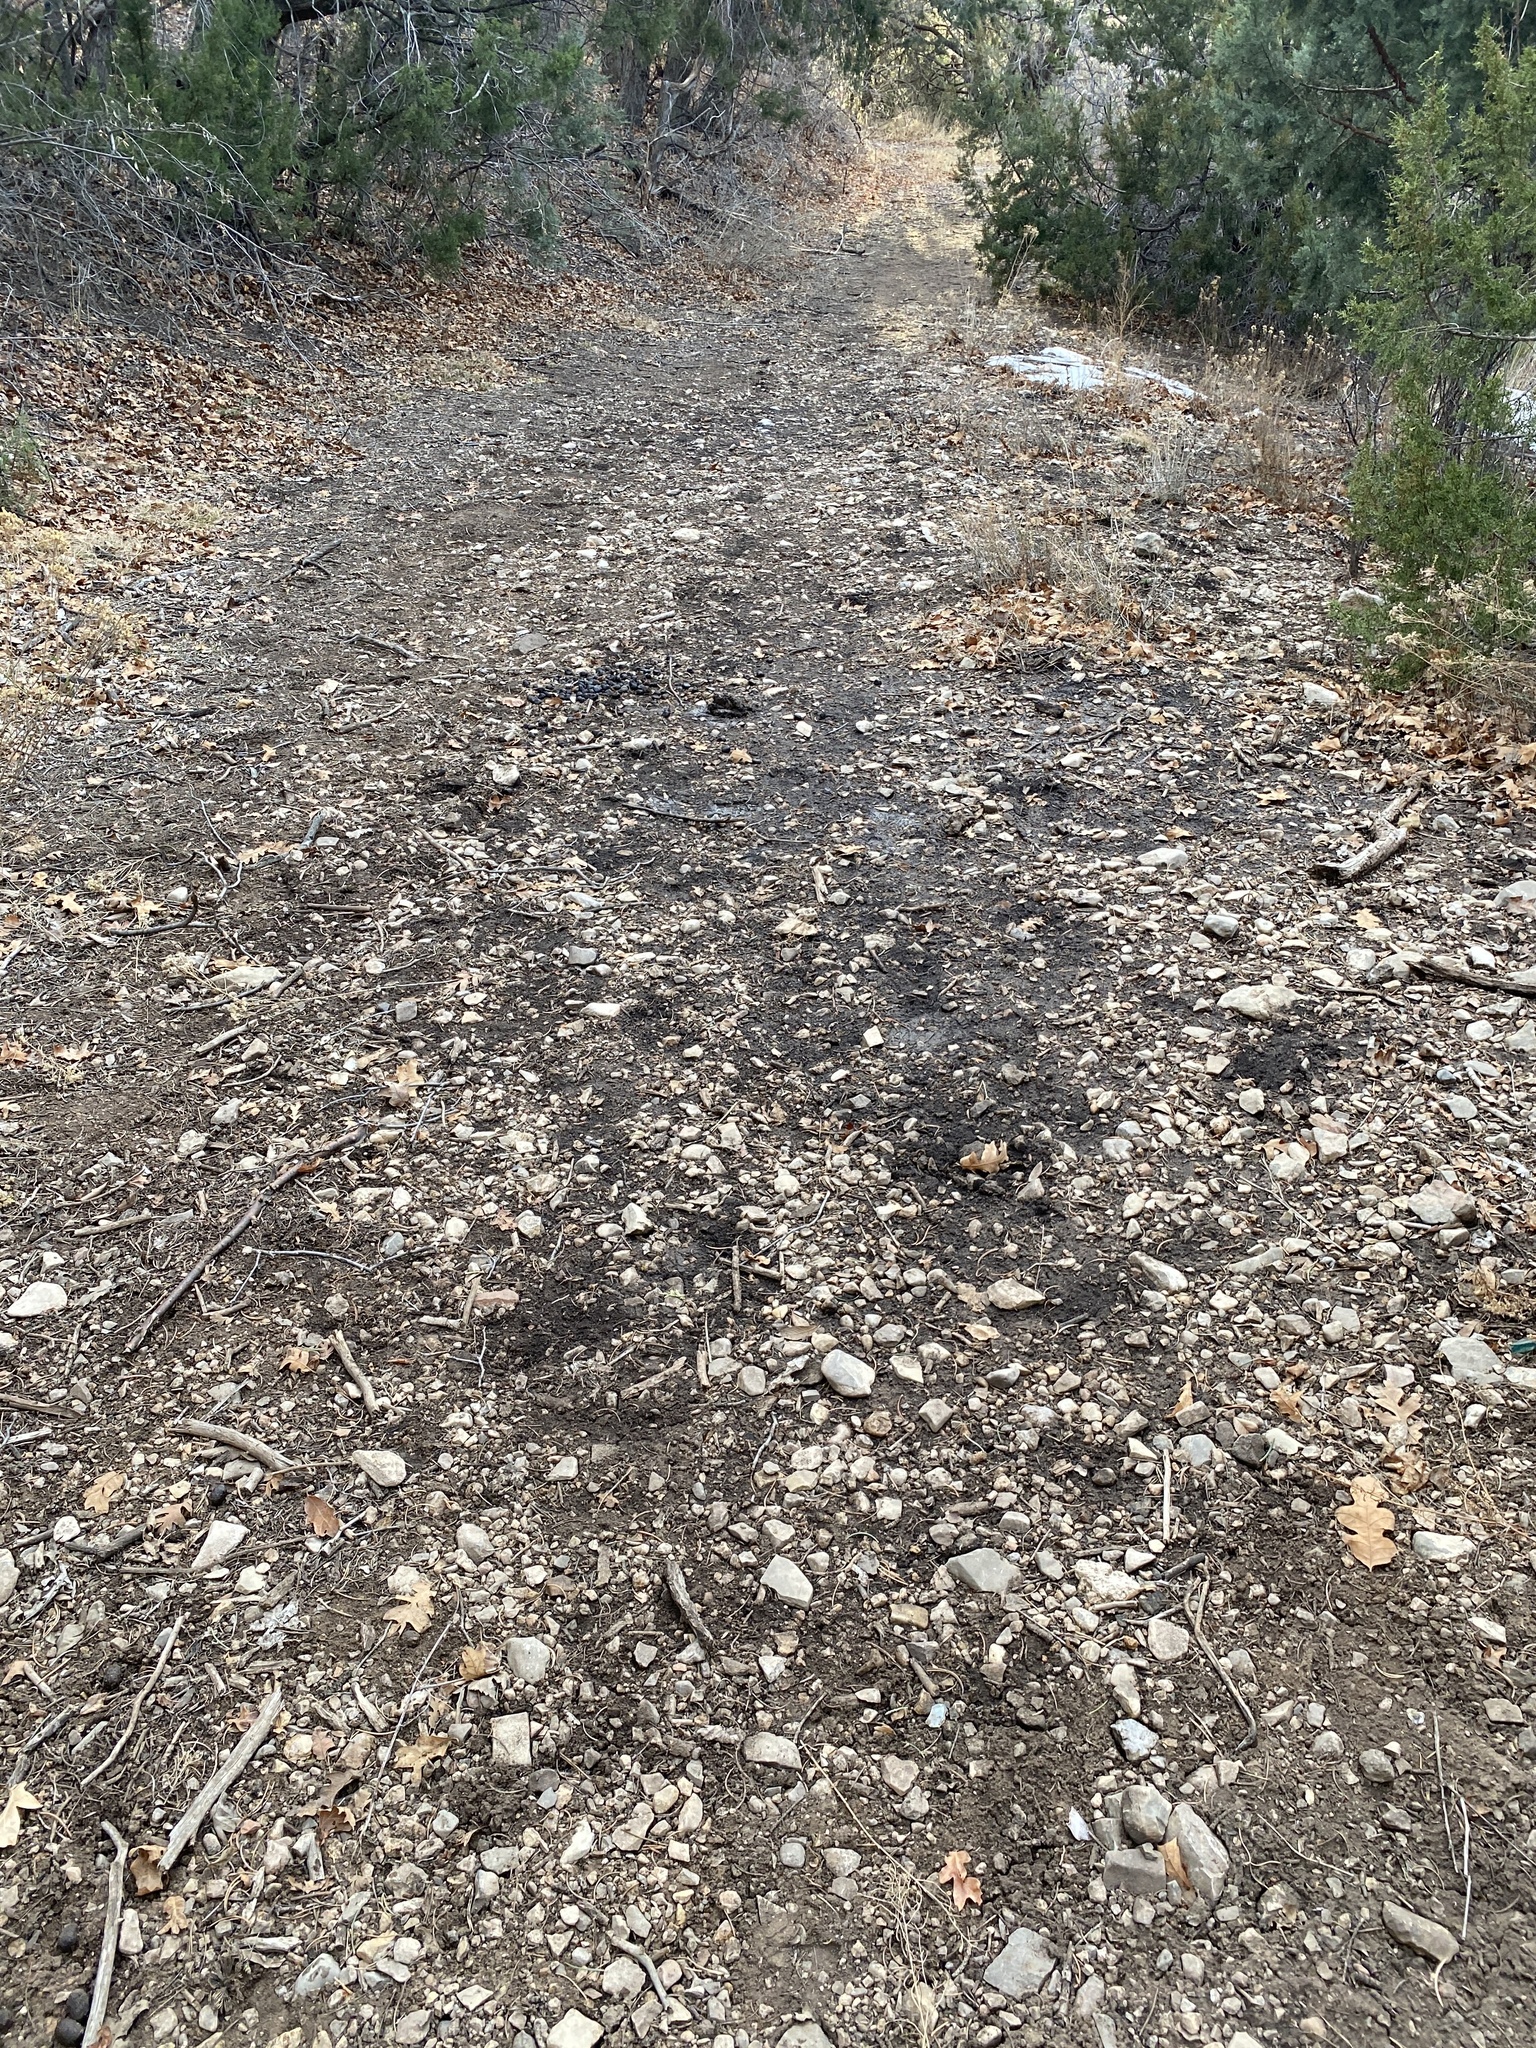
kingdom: Animalia
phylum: Chordata
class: Mammalia
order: Artiodactyla
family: Cervidae
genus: Cervus
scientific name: Cervus elaphus
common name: Red deer
